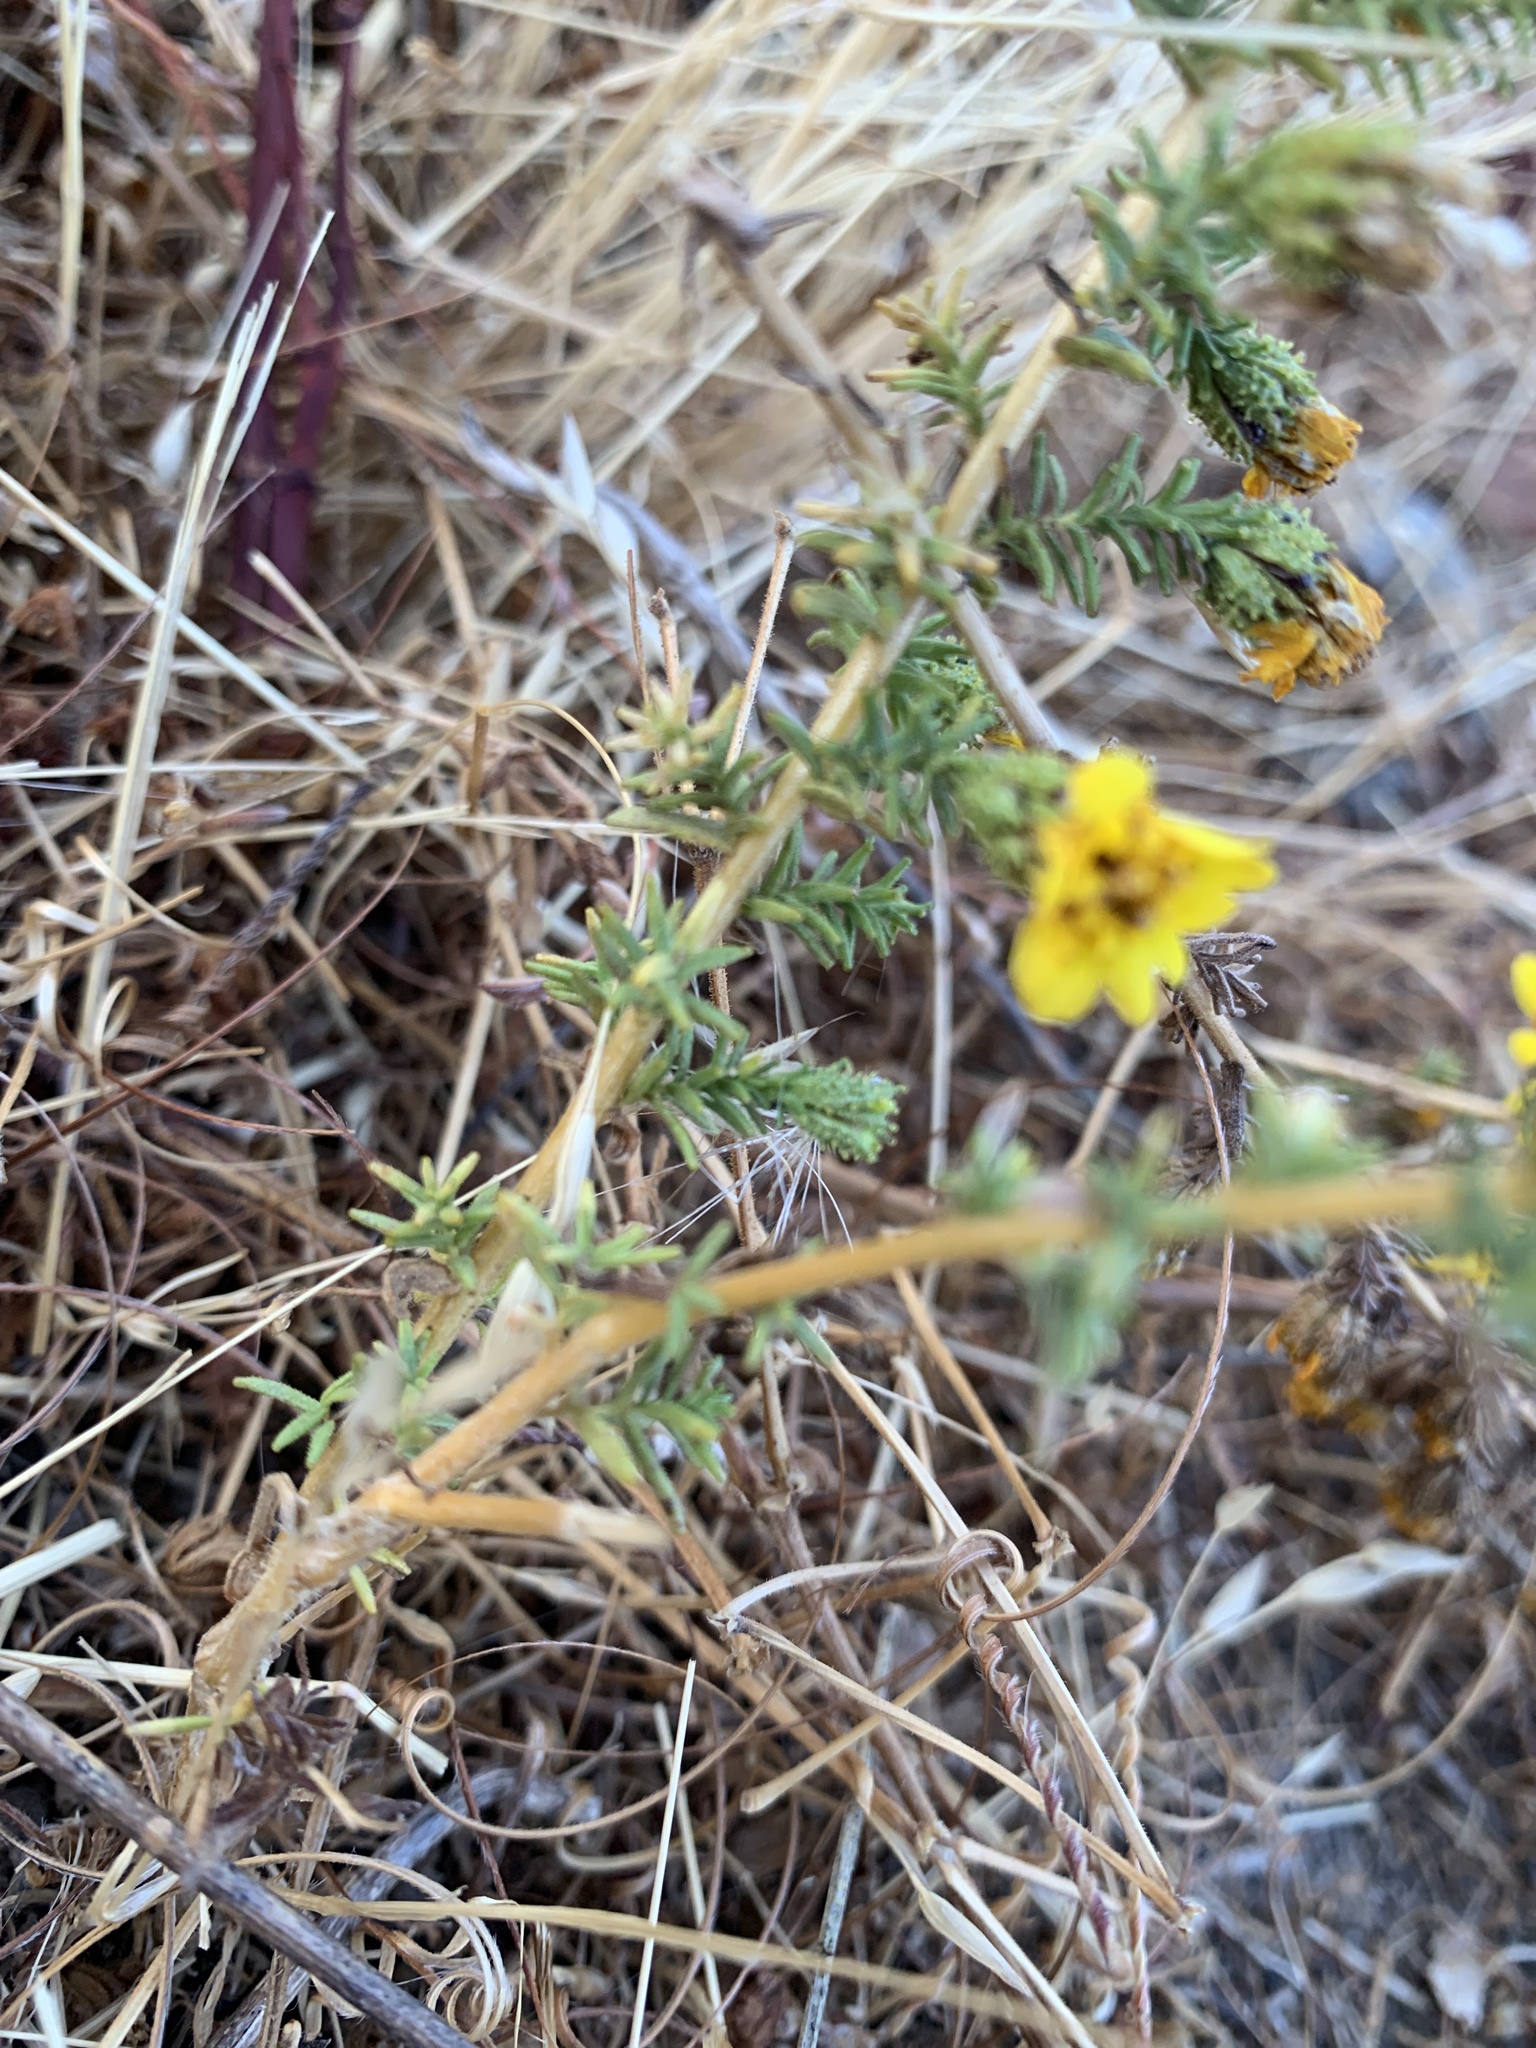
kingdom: Plantae
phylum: Tracheophyta
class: Magnoliopsida
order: Asterales
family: Asteraceae
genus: Holocarpha
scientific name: Holocarpha virgata
